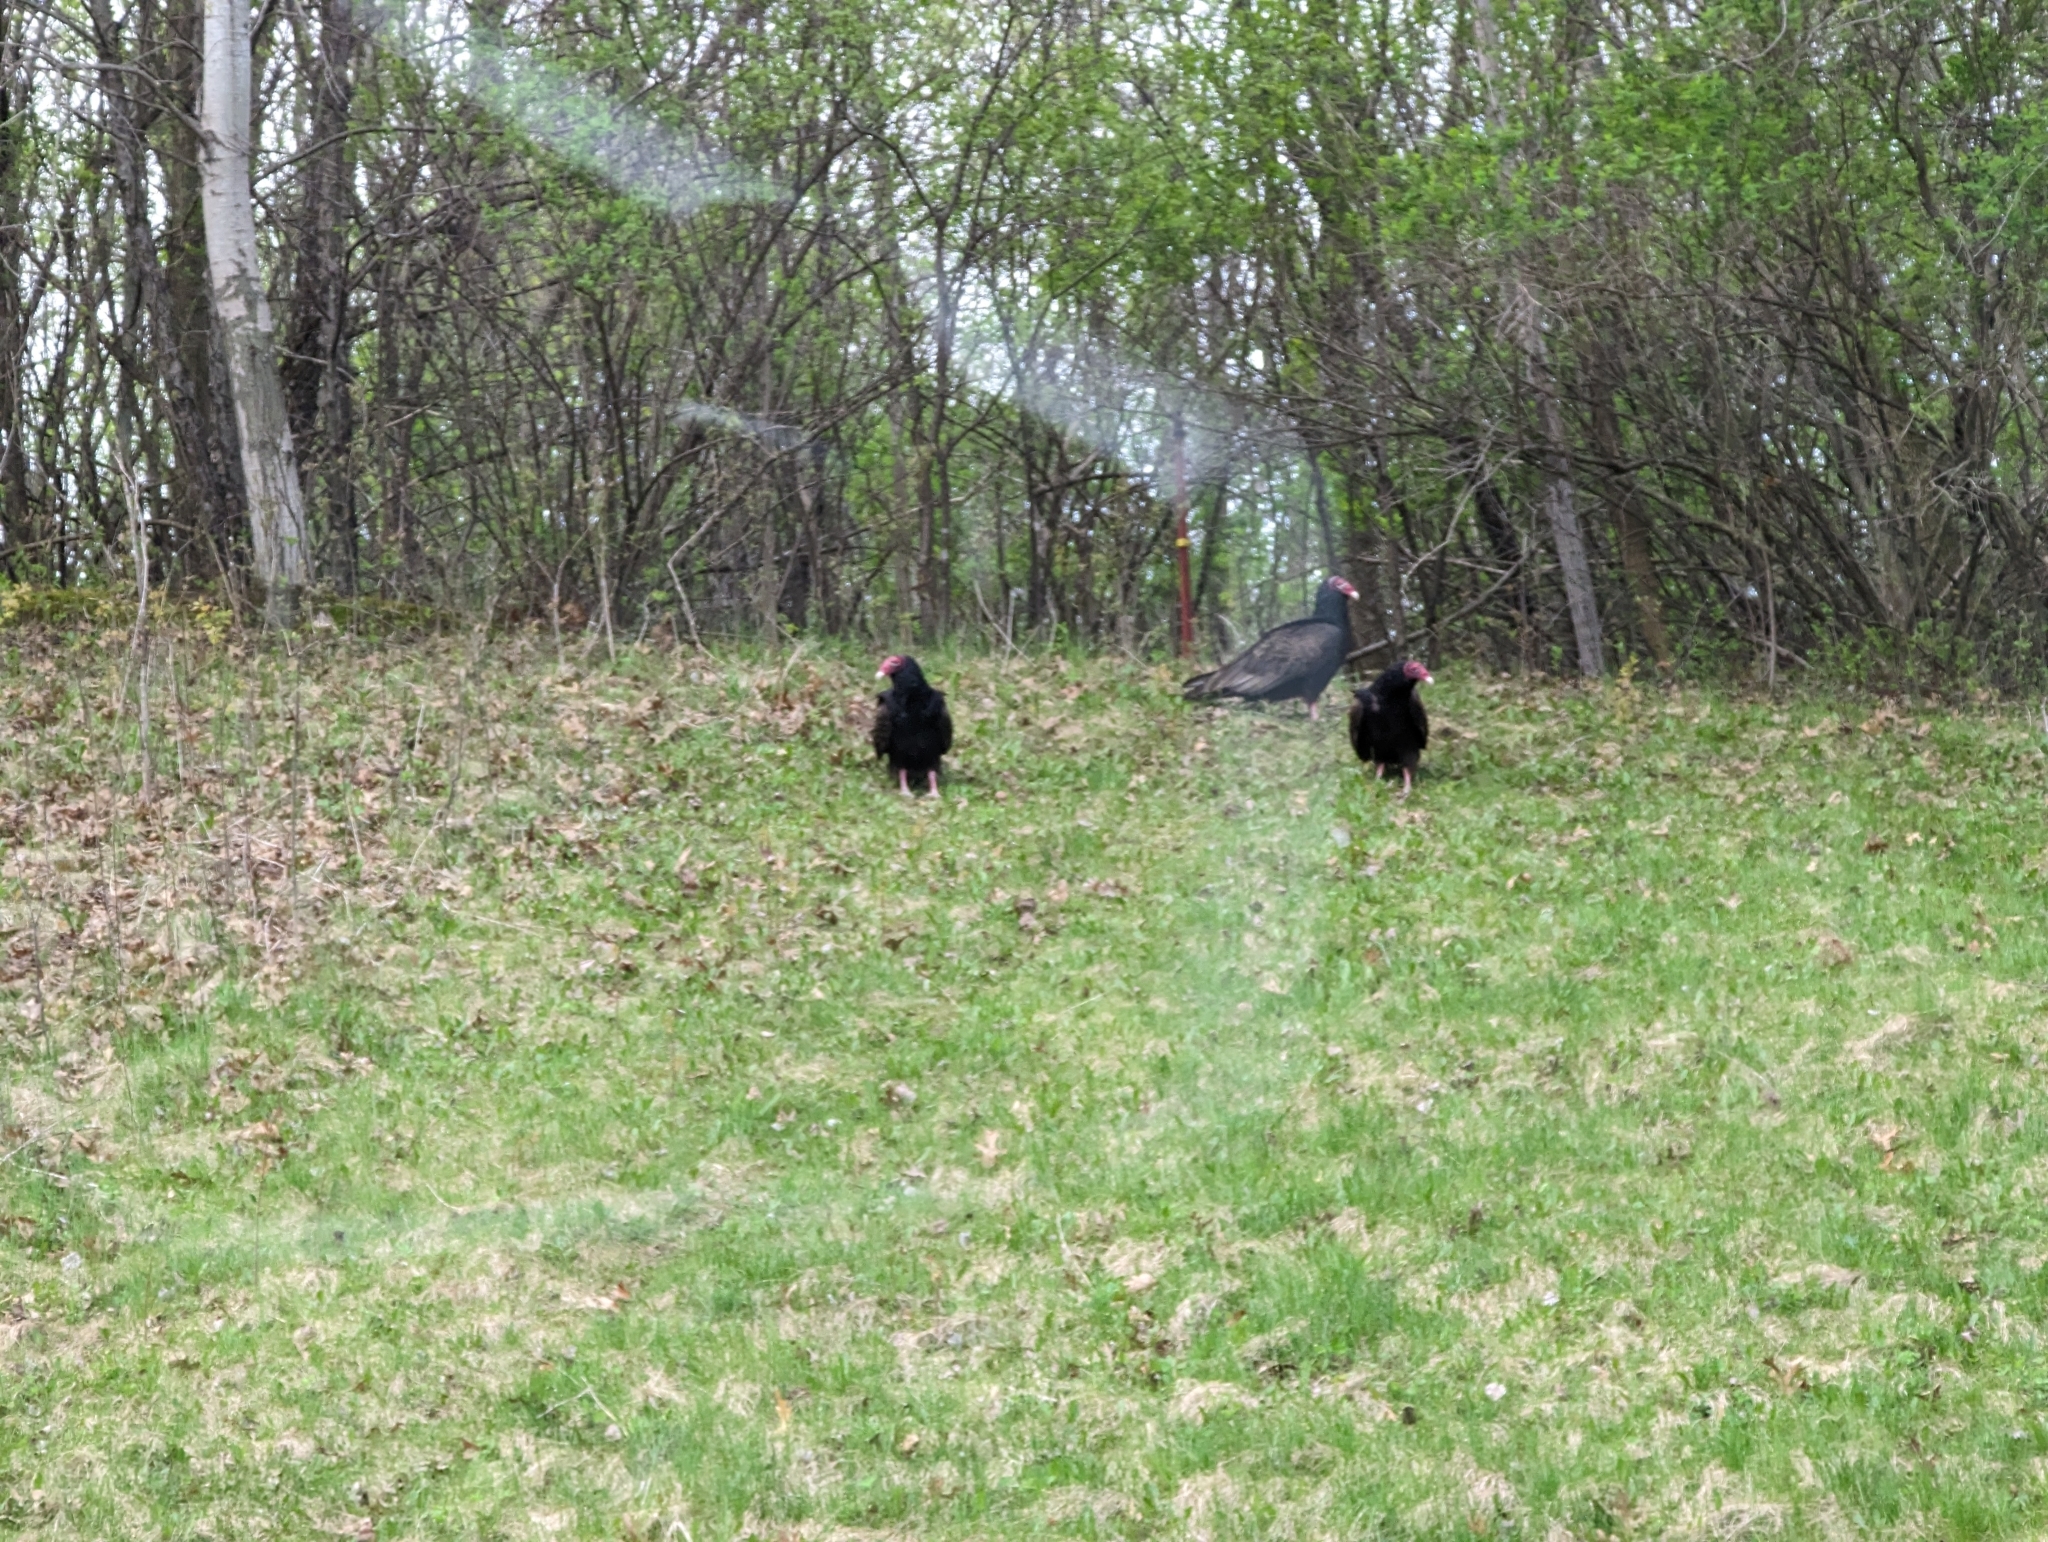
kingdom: Animalia
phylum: Chordata
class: Aves
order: Accipitriformes
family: Cathartidae
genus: Cathartes
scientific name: Cathartes aura
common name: Turkey vulture
